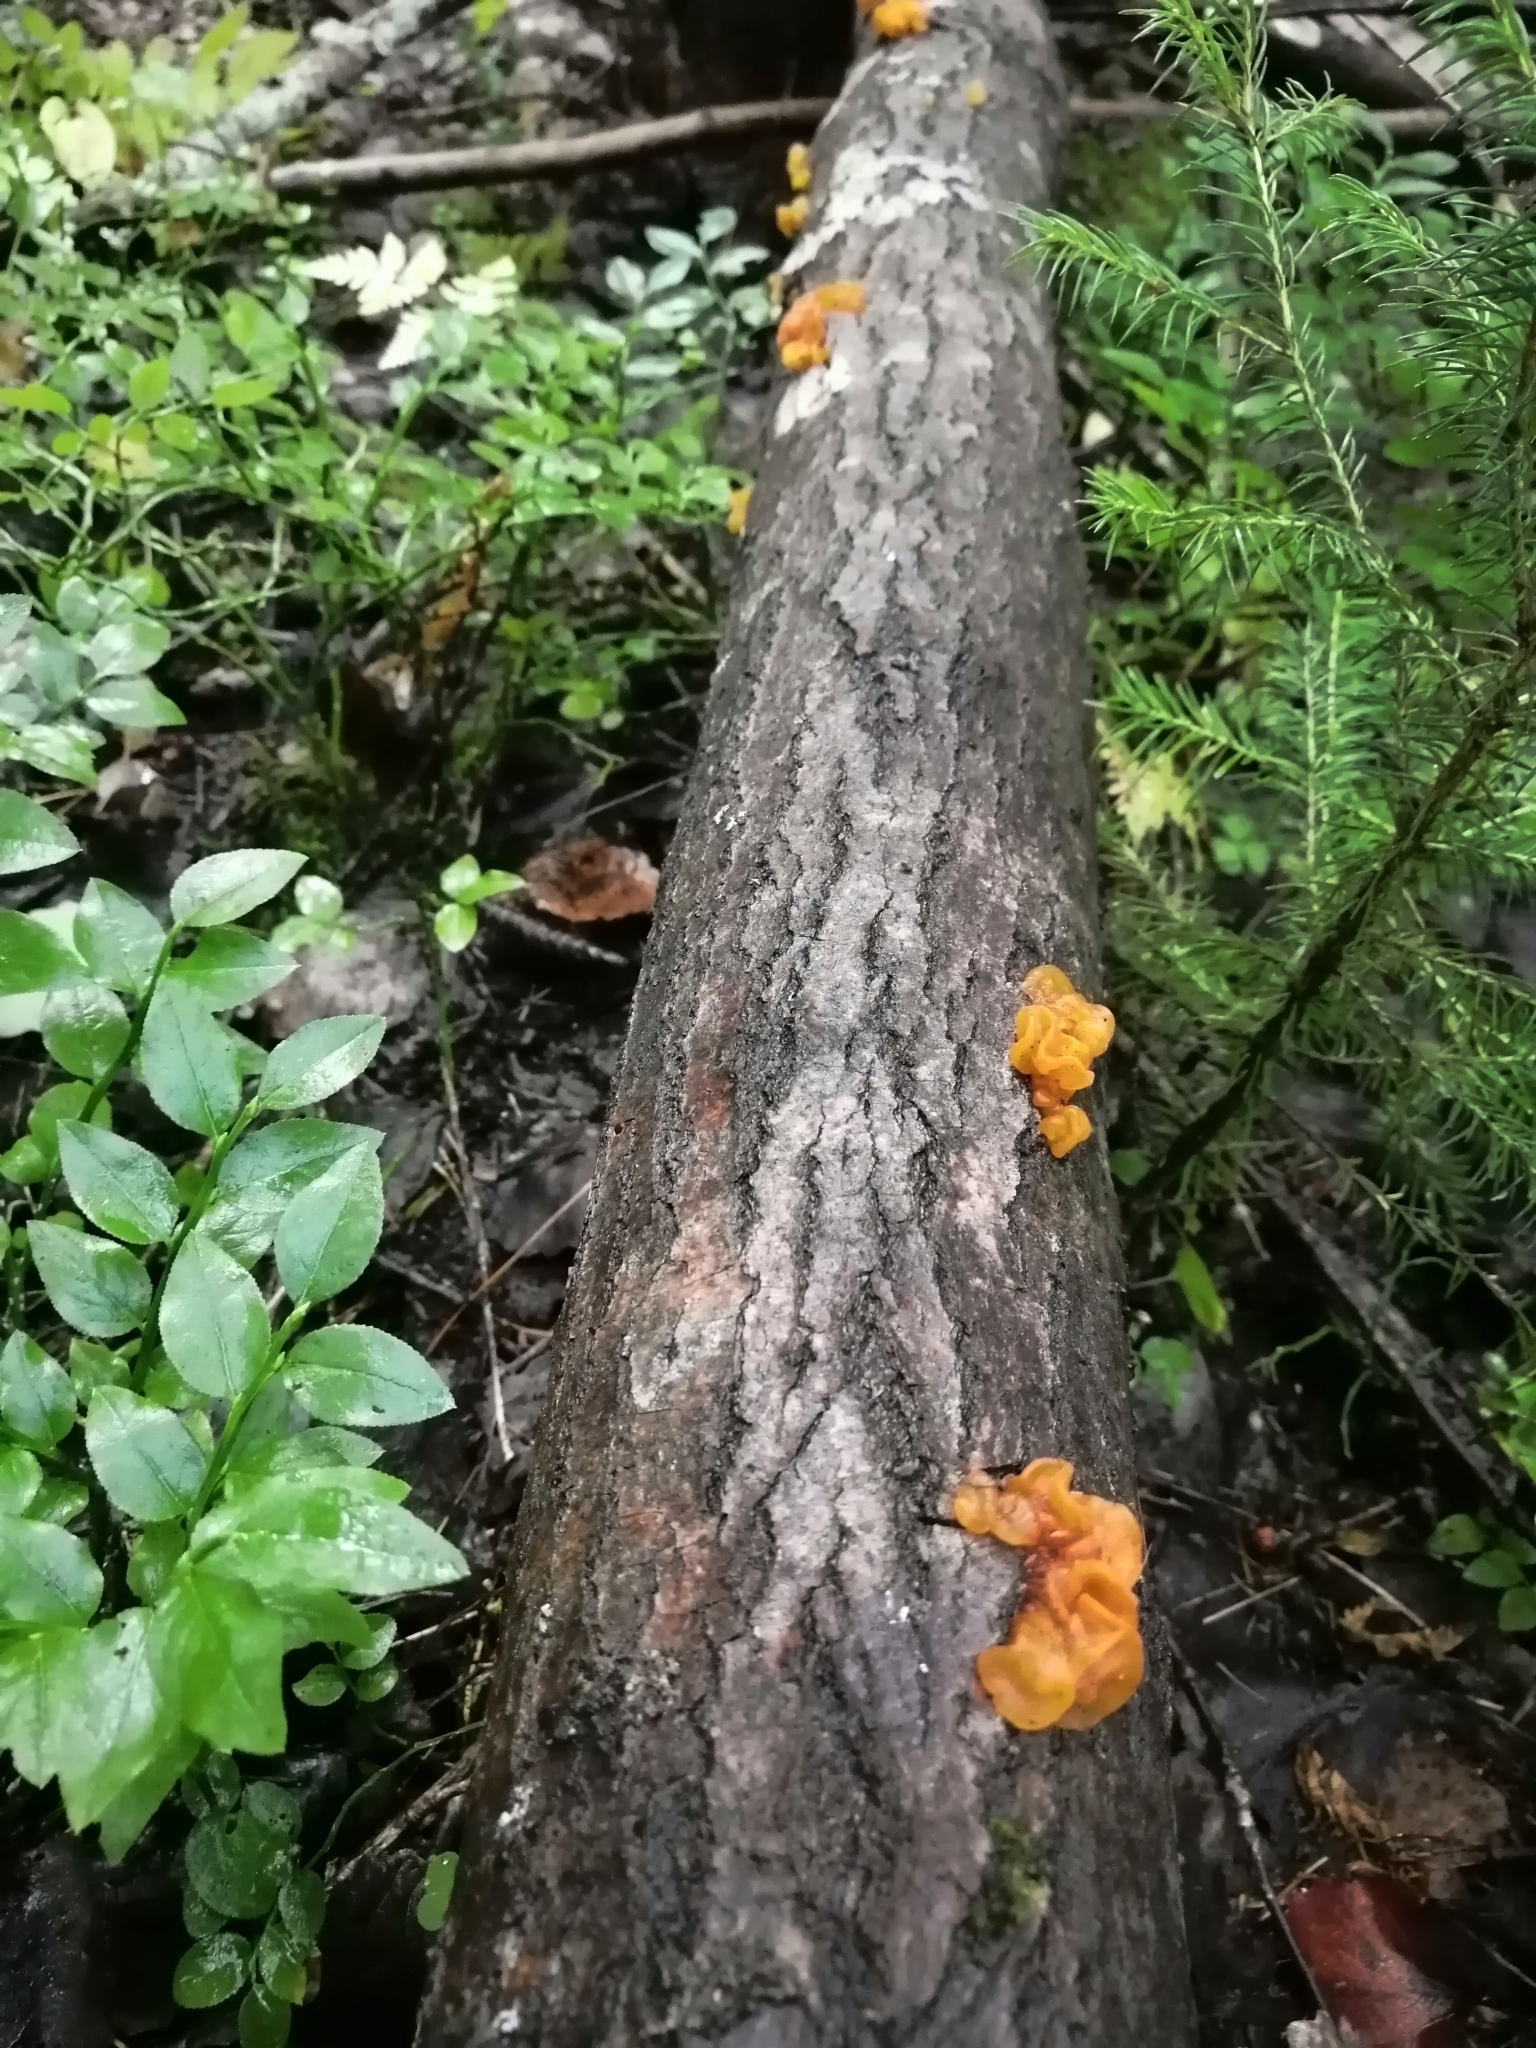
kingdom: Fungi
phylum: Basidiomycota
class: Tremellomycetes
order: Tremellales
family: Tremellaceae
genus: Tremella
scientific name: Tremella mesenterica
